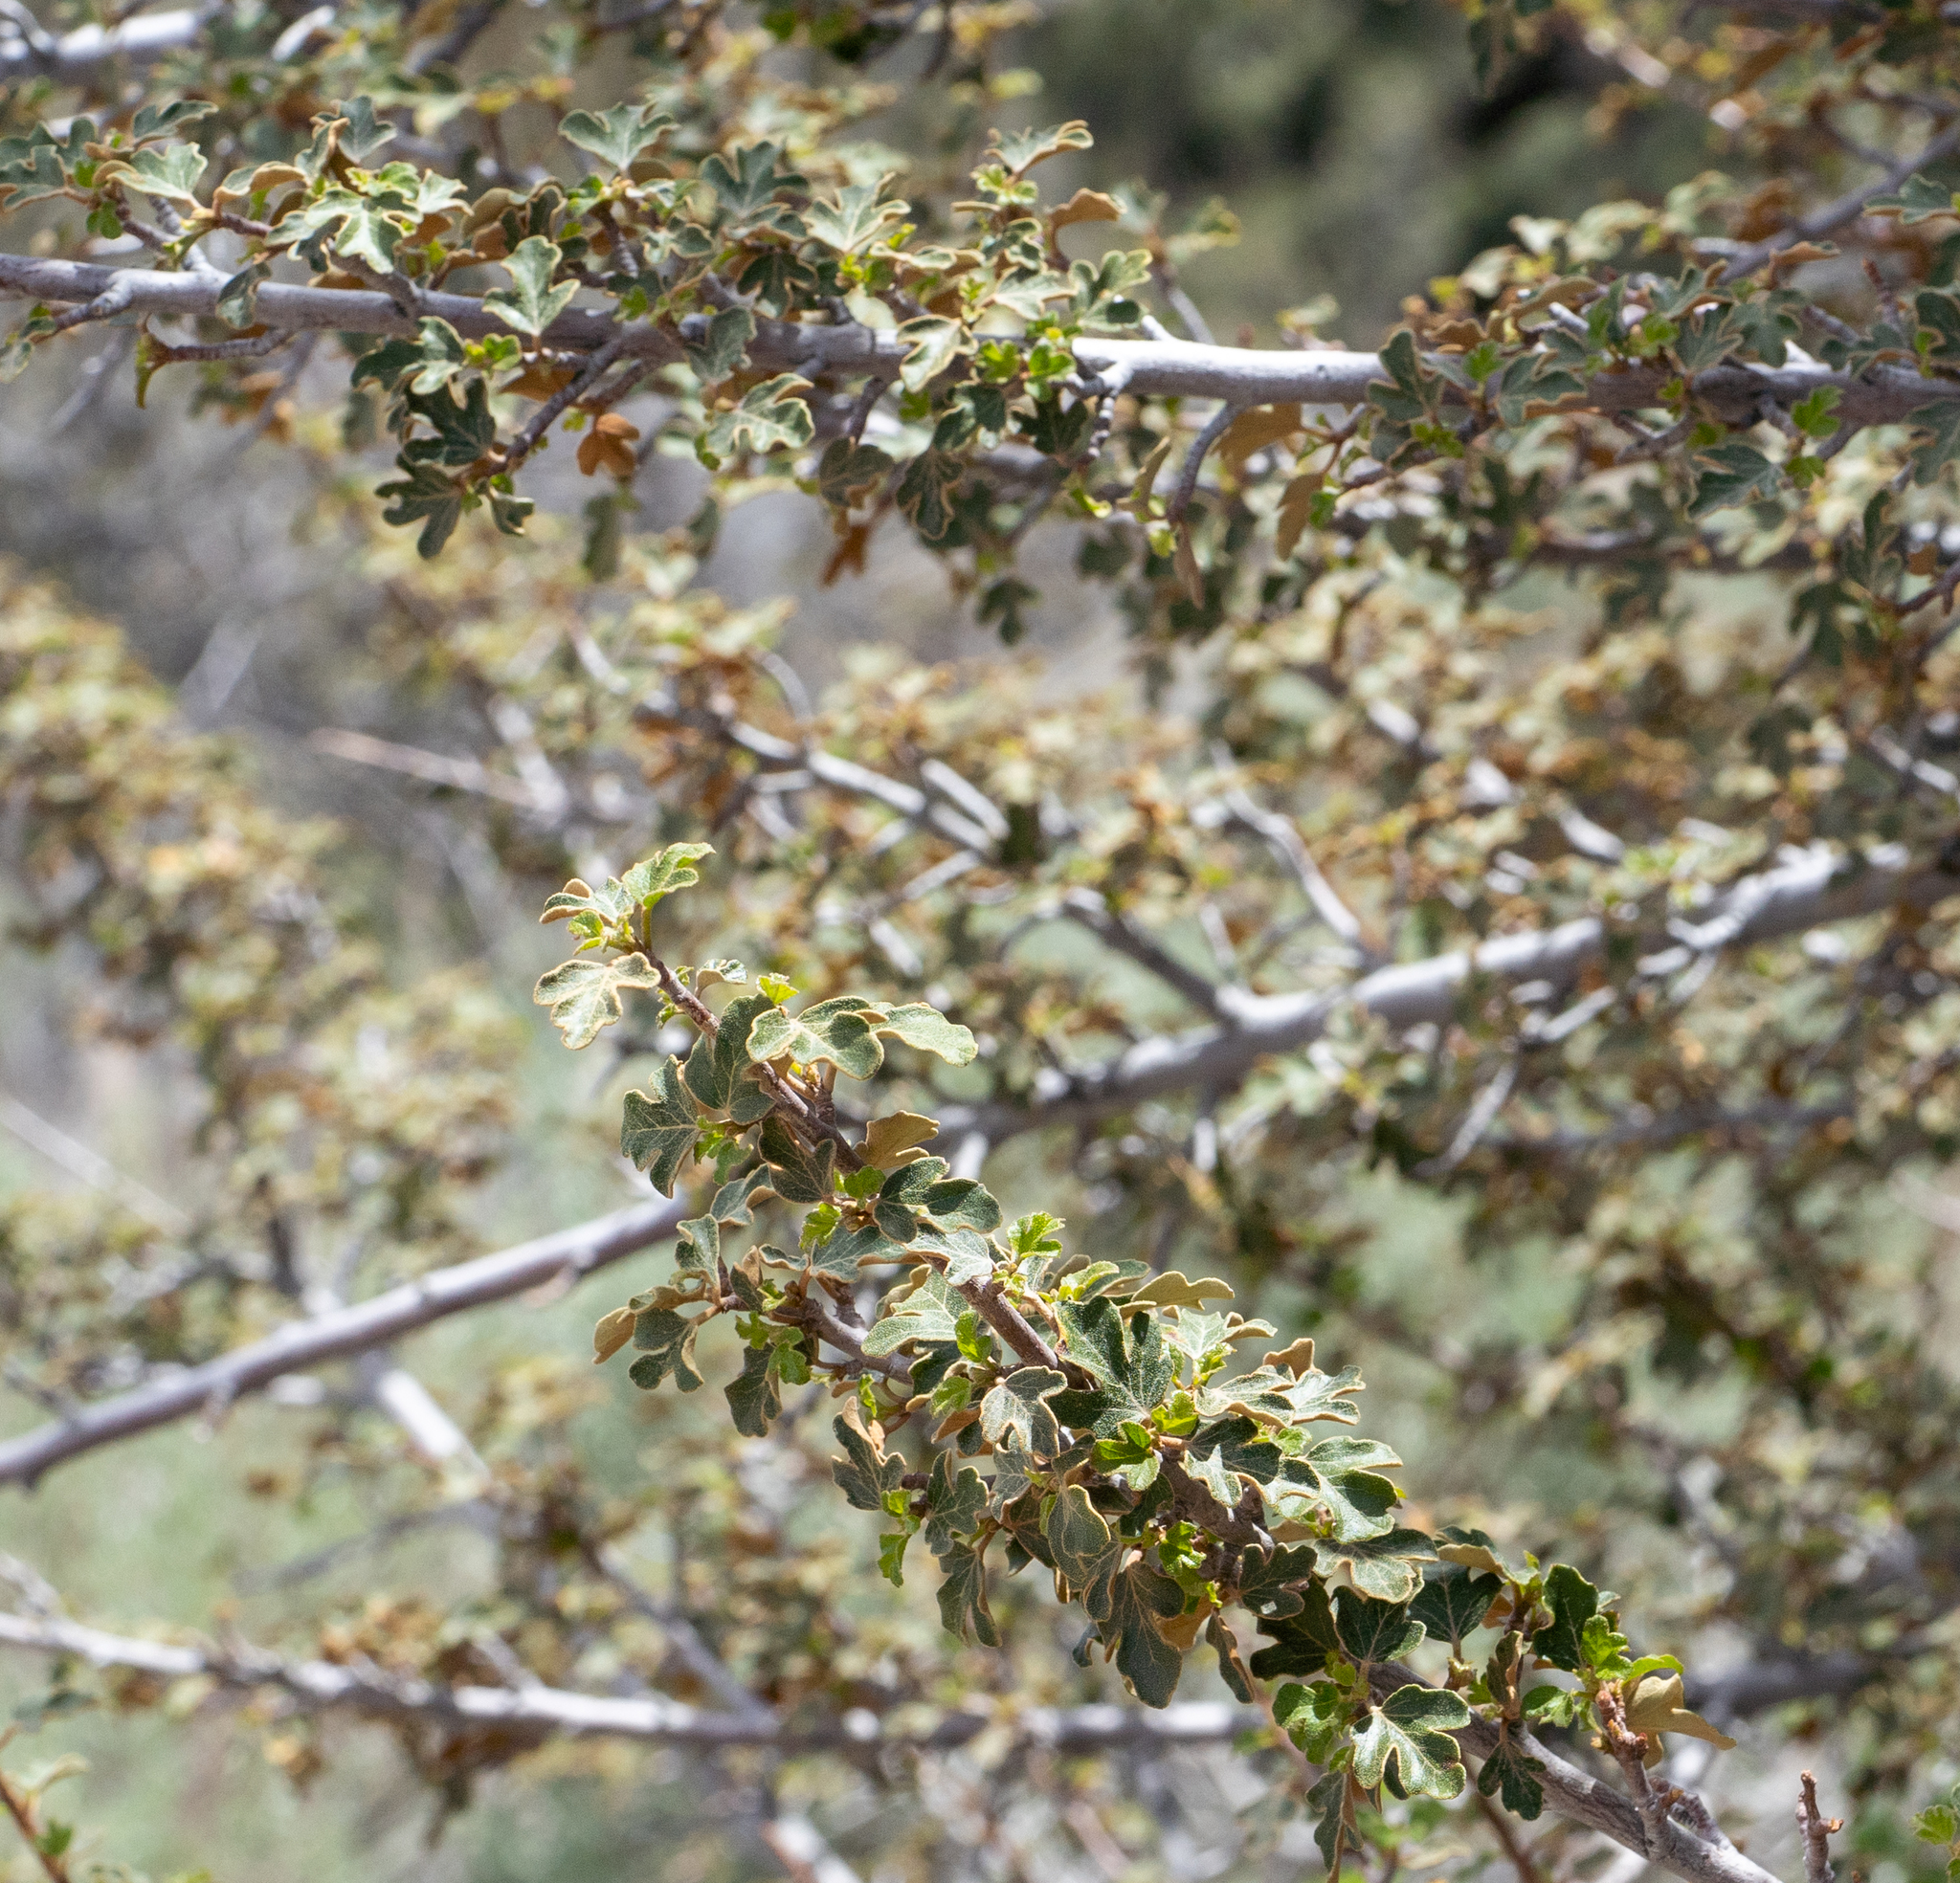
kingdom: Plantae
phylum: Tracheophyta
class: Magnoliopsida
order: Sapindales
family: Anacardiaceae
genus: Rhus
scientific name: Rhus aromatica
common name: Aromatic sumac
